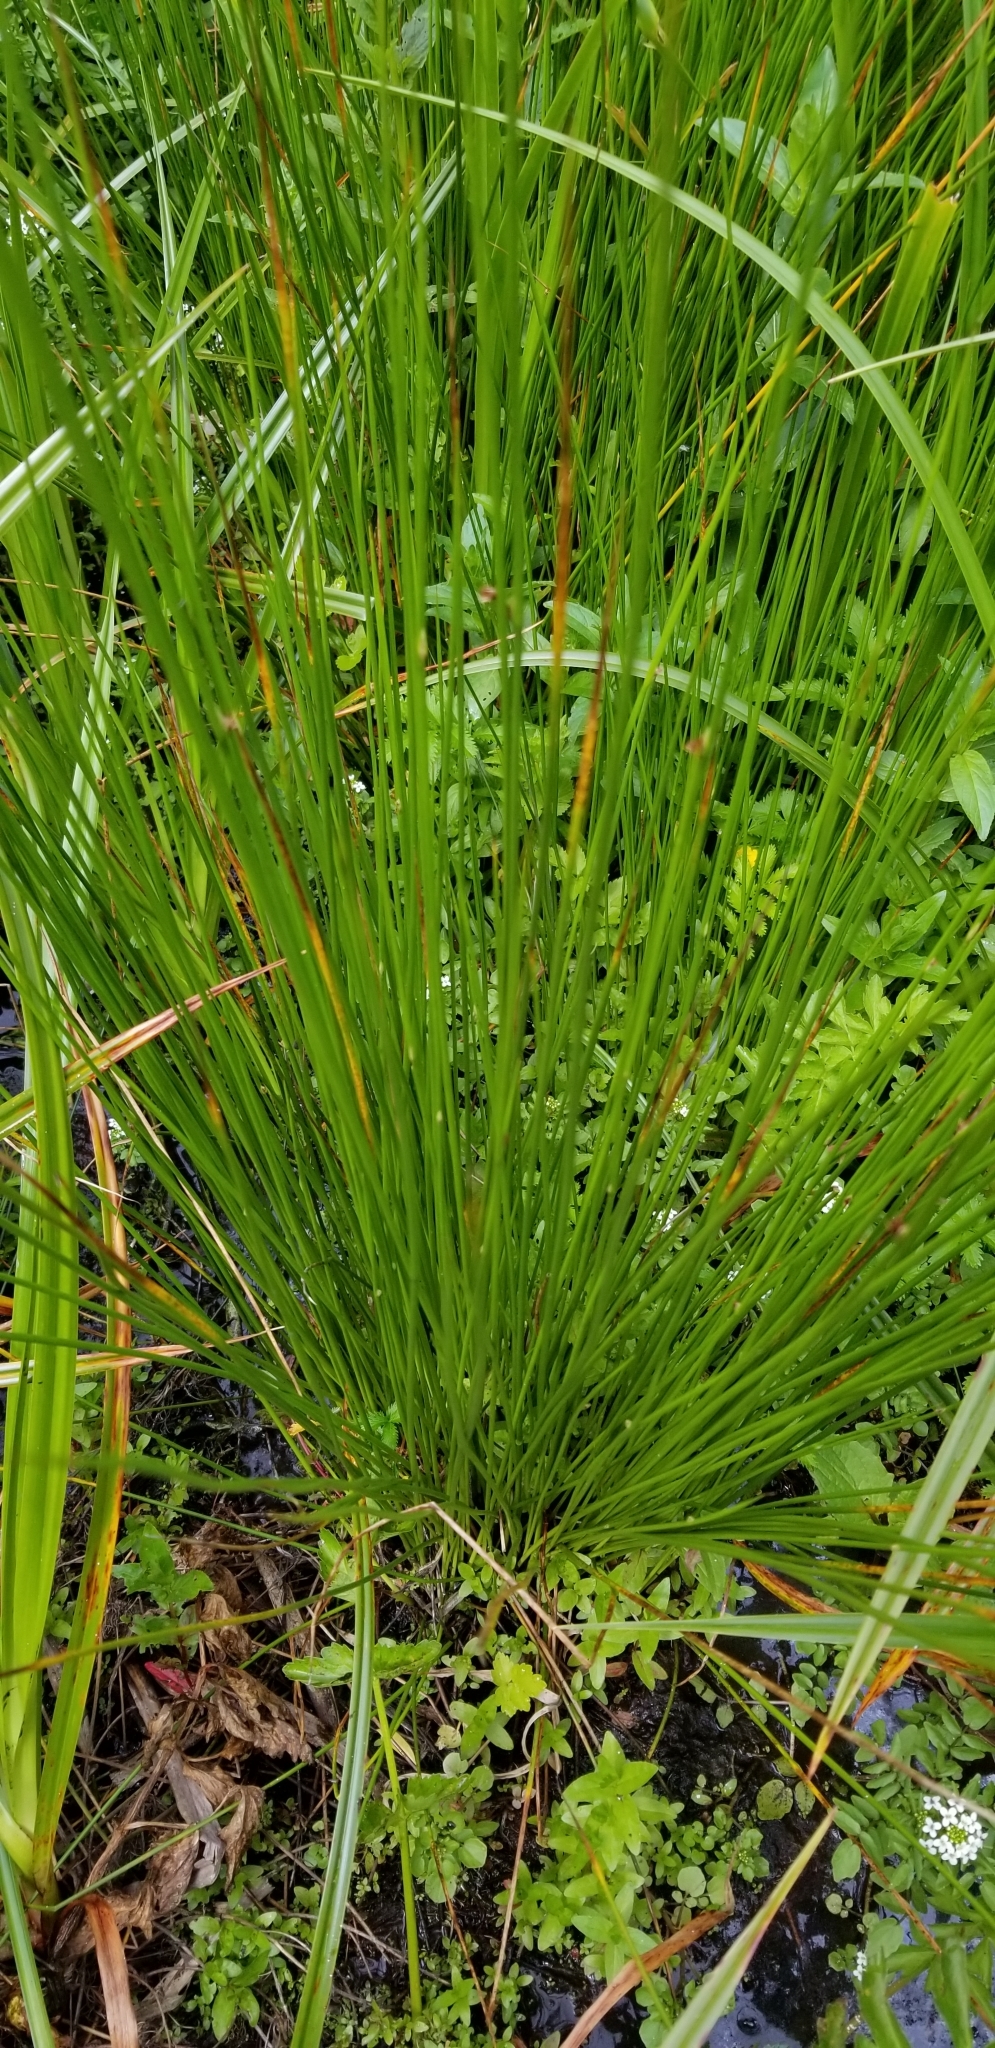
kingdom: Plantae
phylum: Tracheophyta
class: Liliopsida
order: Poales
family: Juncaceae
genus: Juncus
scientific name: Juncus effusus
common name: Soft rush
